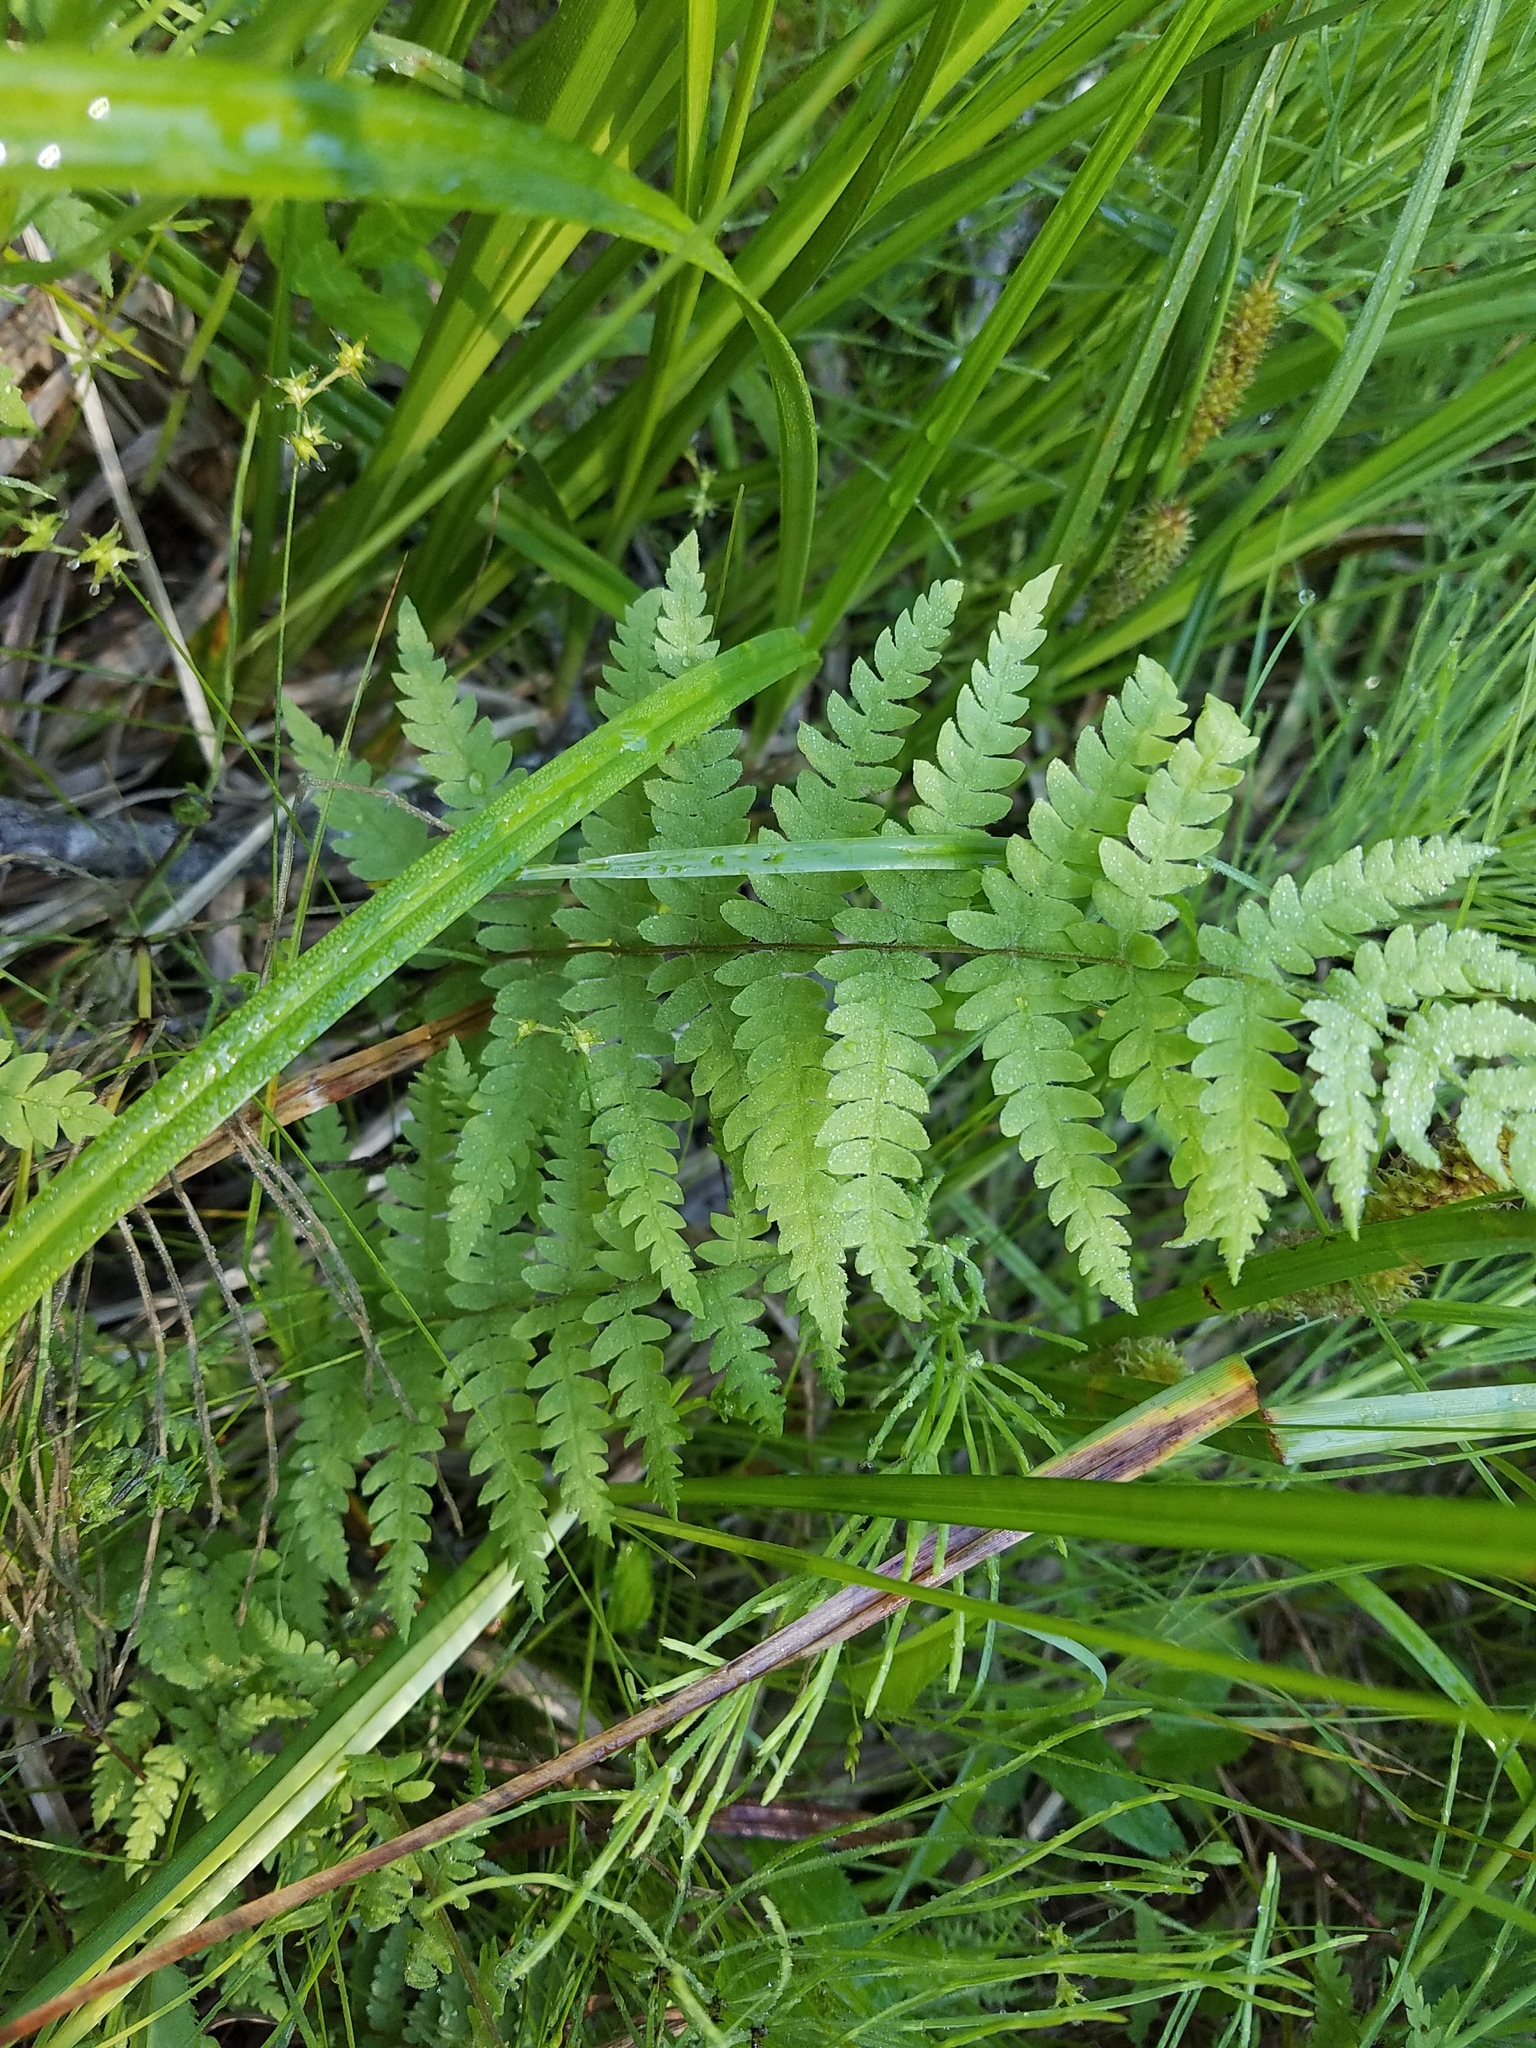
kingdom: Plantae
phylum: Tracheophyta
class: Polypodiopsida
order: Polypodiales
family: Thelypteridaceae
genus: Thelypteris
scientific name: Thelypteris palustris
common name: Marsh fern
